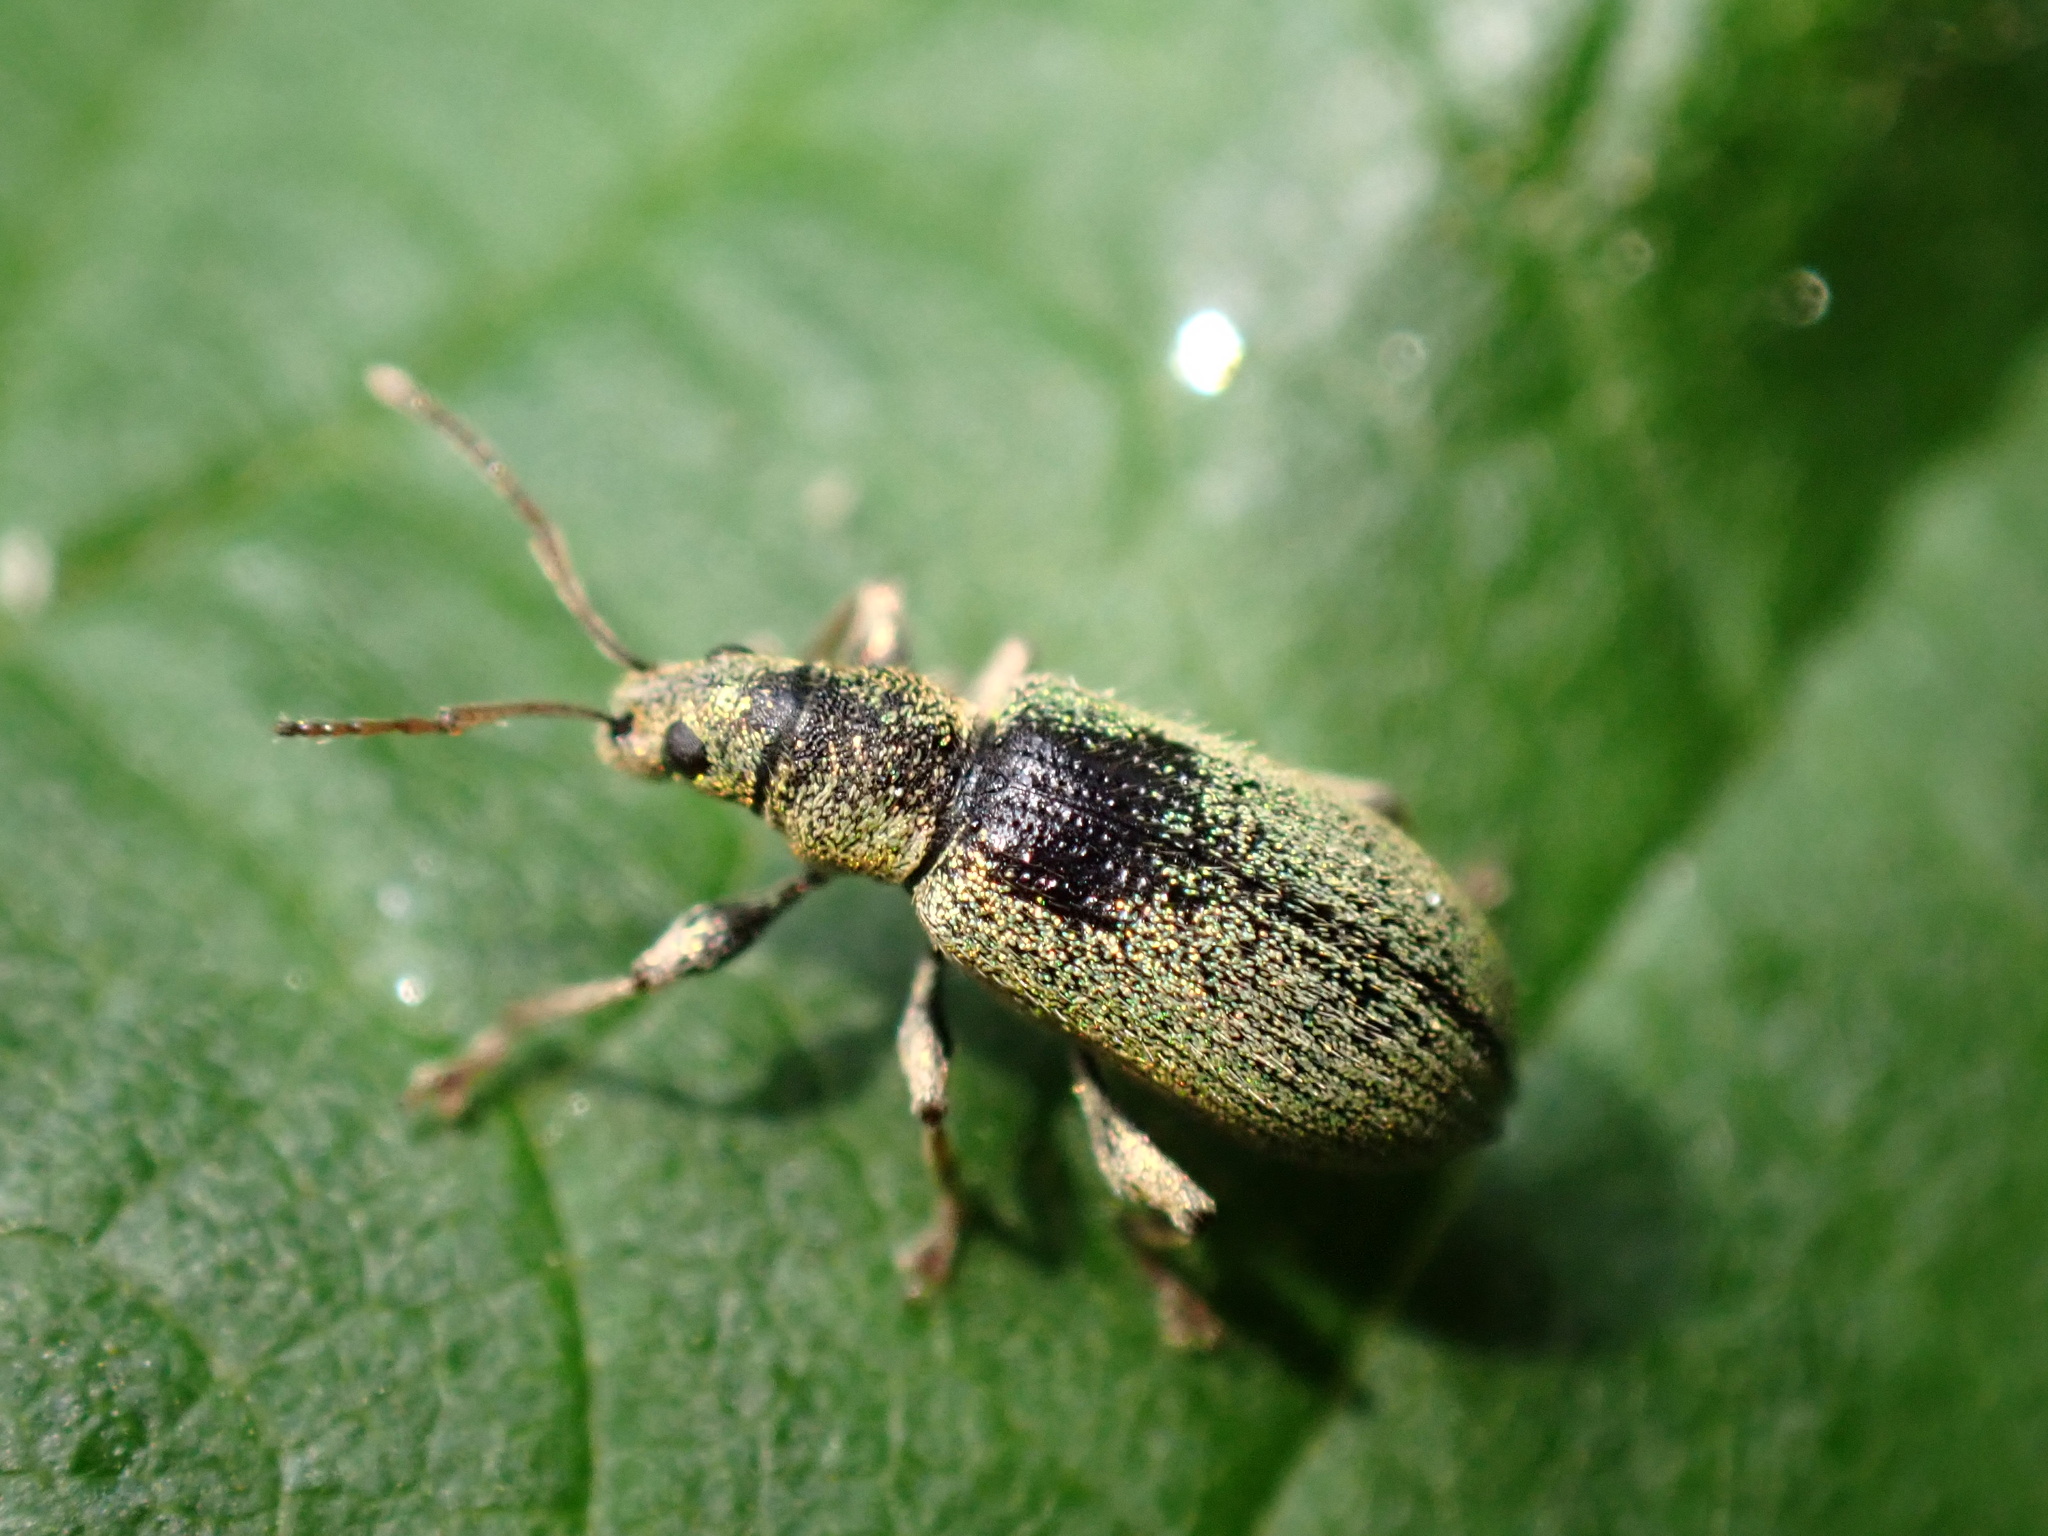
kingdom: Animalia
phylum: Arthropoda
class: Insecta
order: Coleoptera
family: Curculionidae
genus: Phyllobius
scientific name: Phyllobius argentatus
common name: Silver-green leaf weevil
